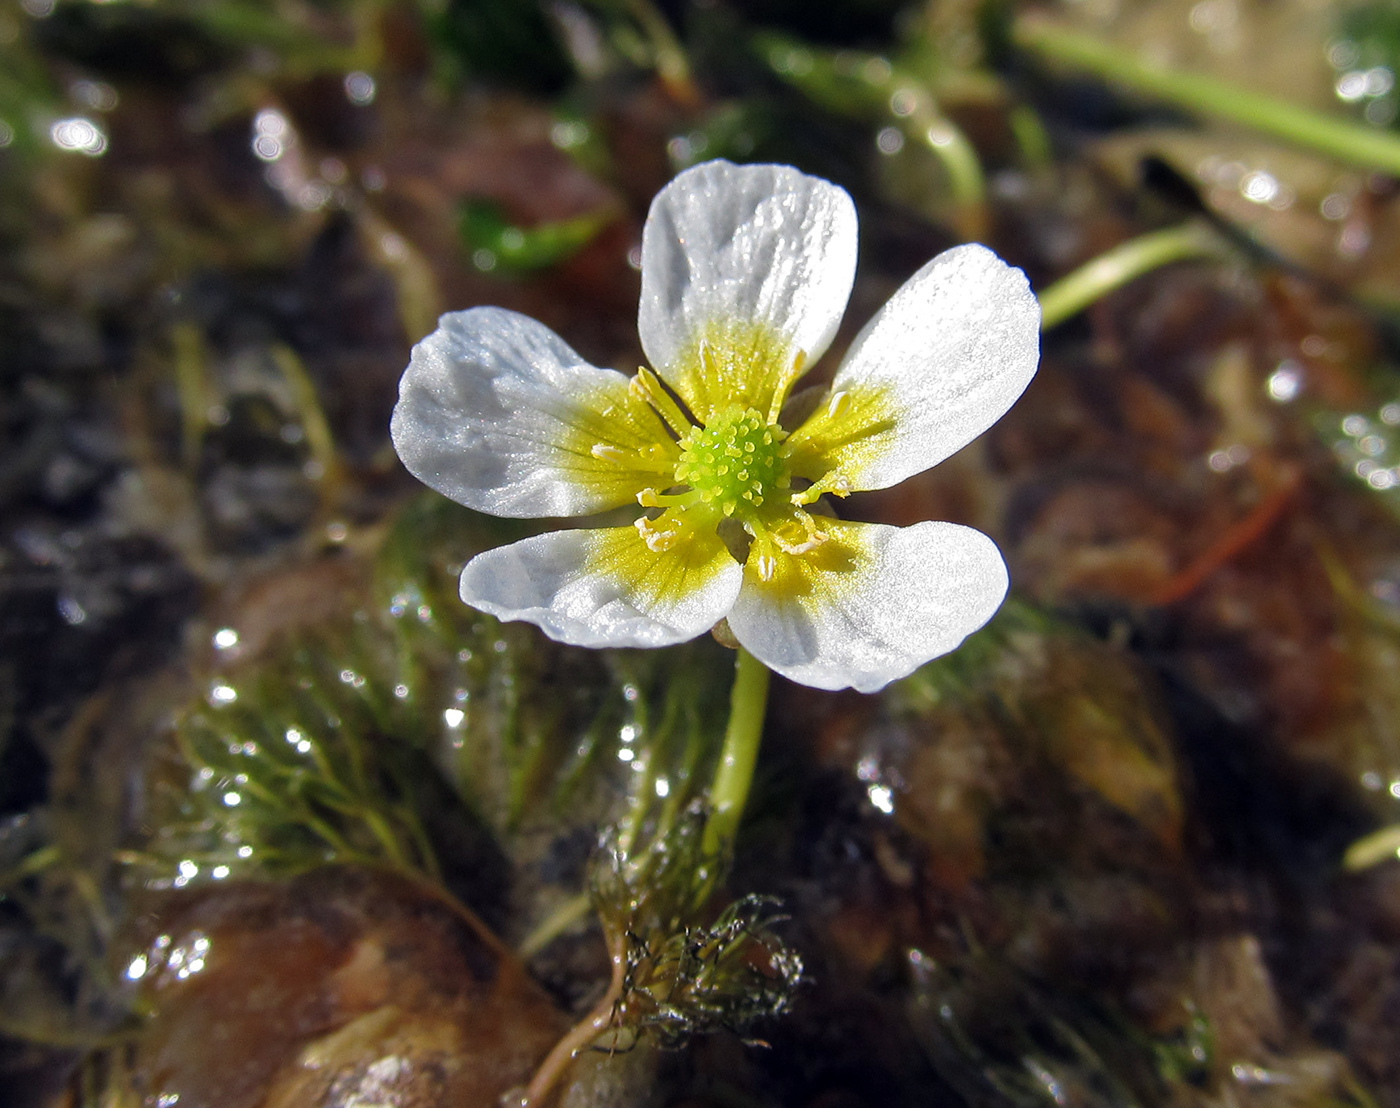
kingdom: Plantae
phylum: Tracheophyta
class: Magnoliopsida
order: Ranunculales
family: Ranunculaceae
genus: Ranunculus
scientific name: Ranunculus ashibetsuensis
